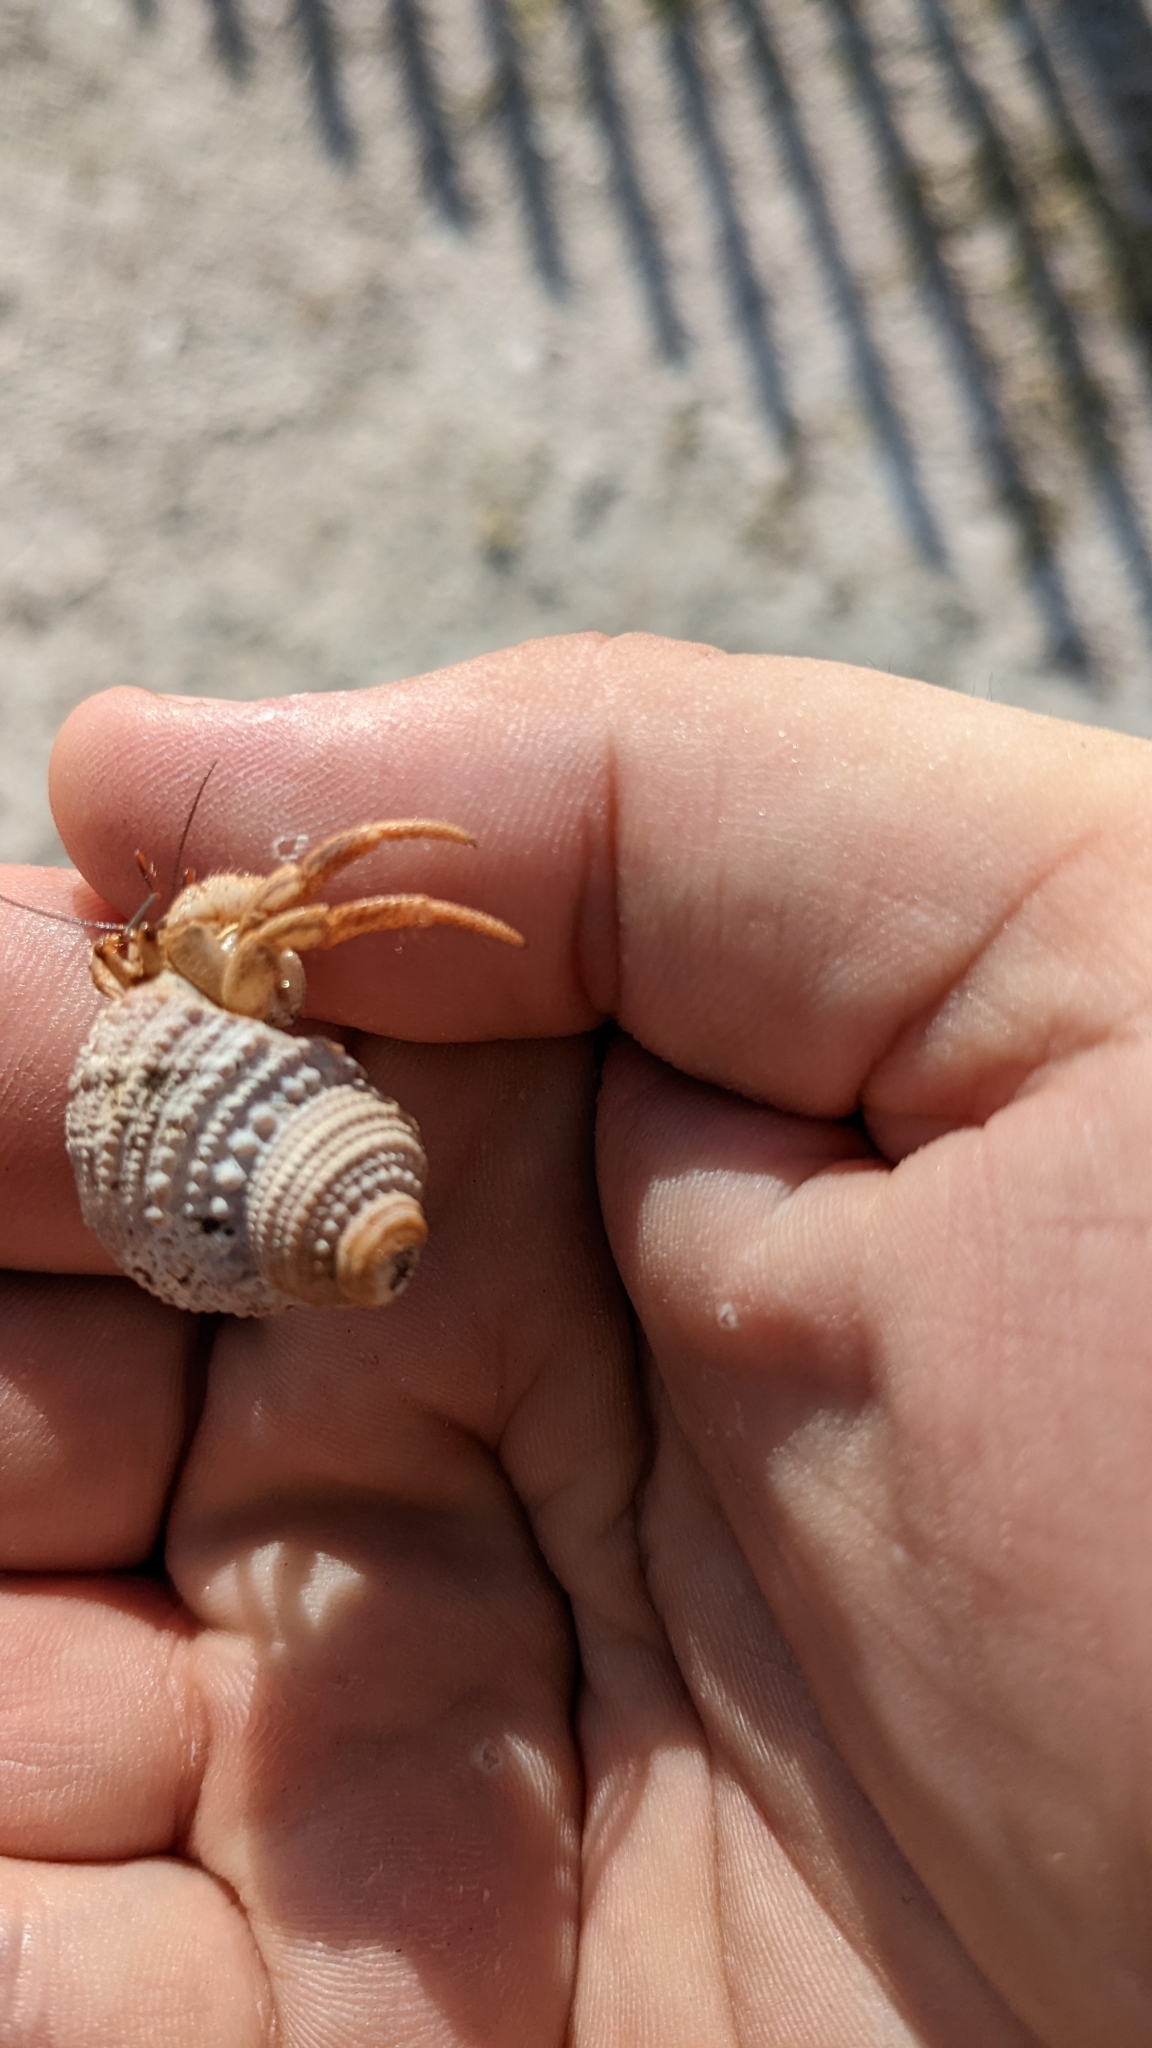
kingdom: Animalia
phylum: Arthropoda
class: Malacostraca
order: Decapoda
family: Coenobitidae
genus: Coenobita
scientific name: Coenobita clypeatus
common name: Caribbean hermit crab
